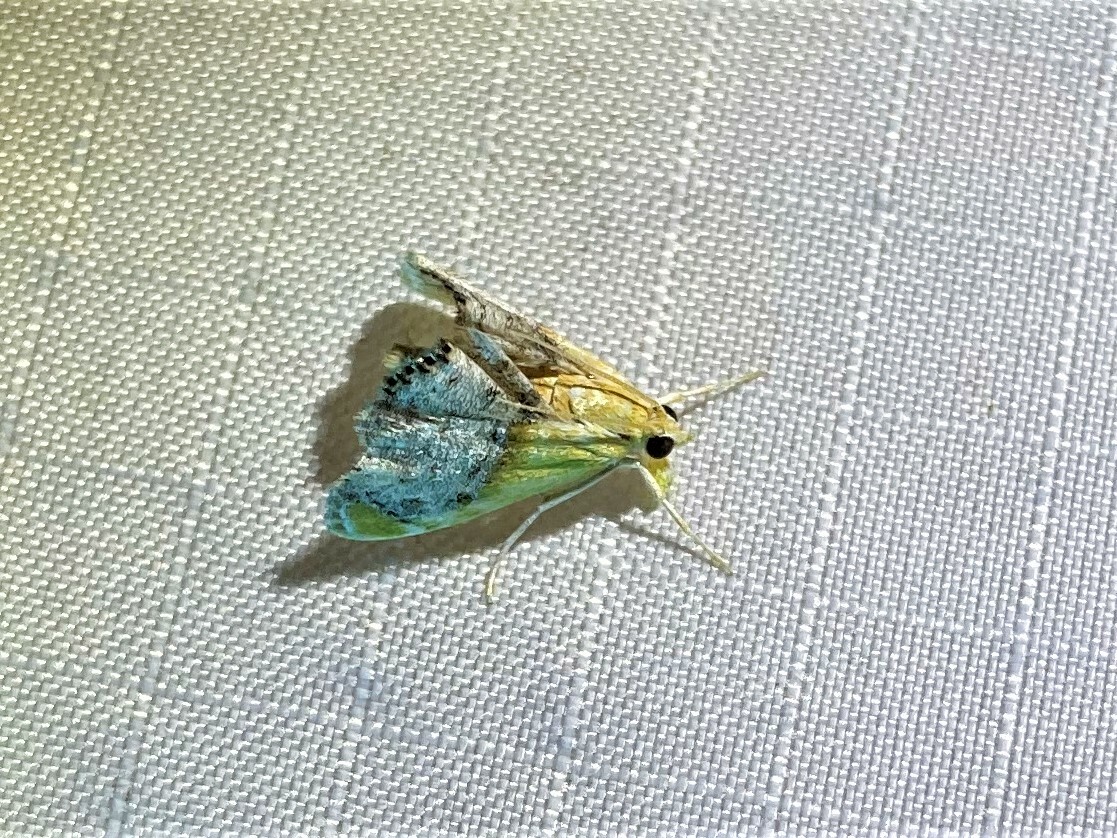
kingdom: Animalia
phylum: Arthropoda
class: Insecta
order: Lepidoptera
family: Crambidae
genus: Chalcoela
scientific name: Chalcoela iphitalis
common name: Sooty-winged chalcoela moth
